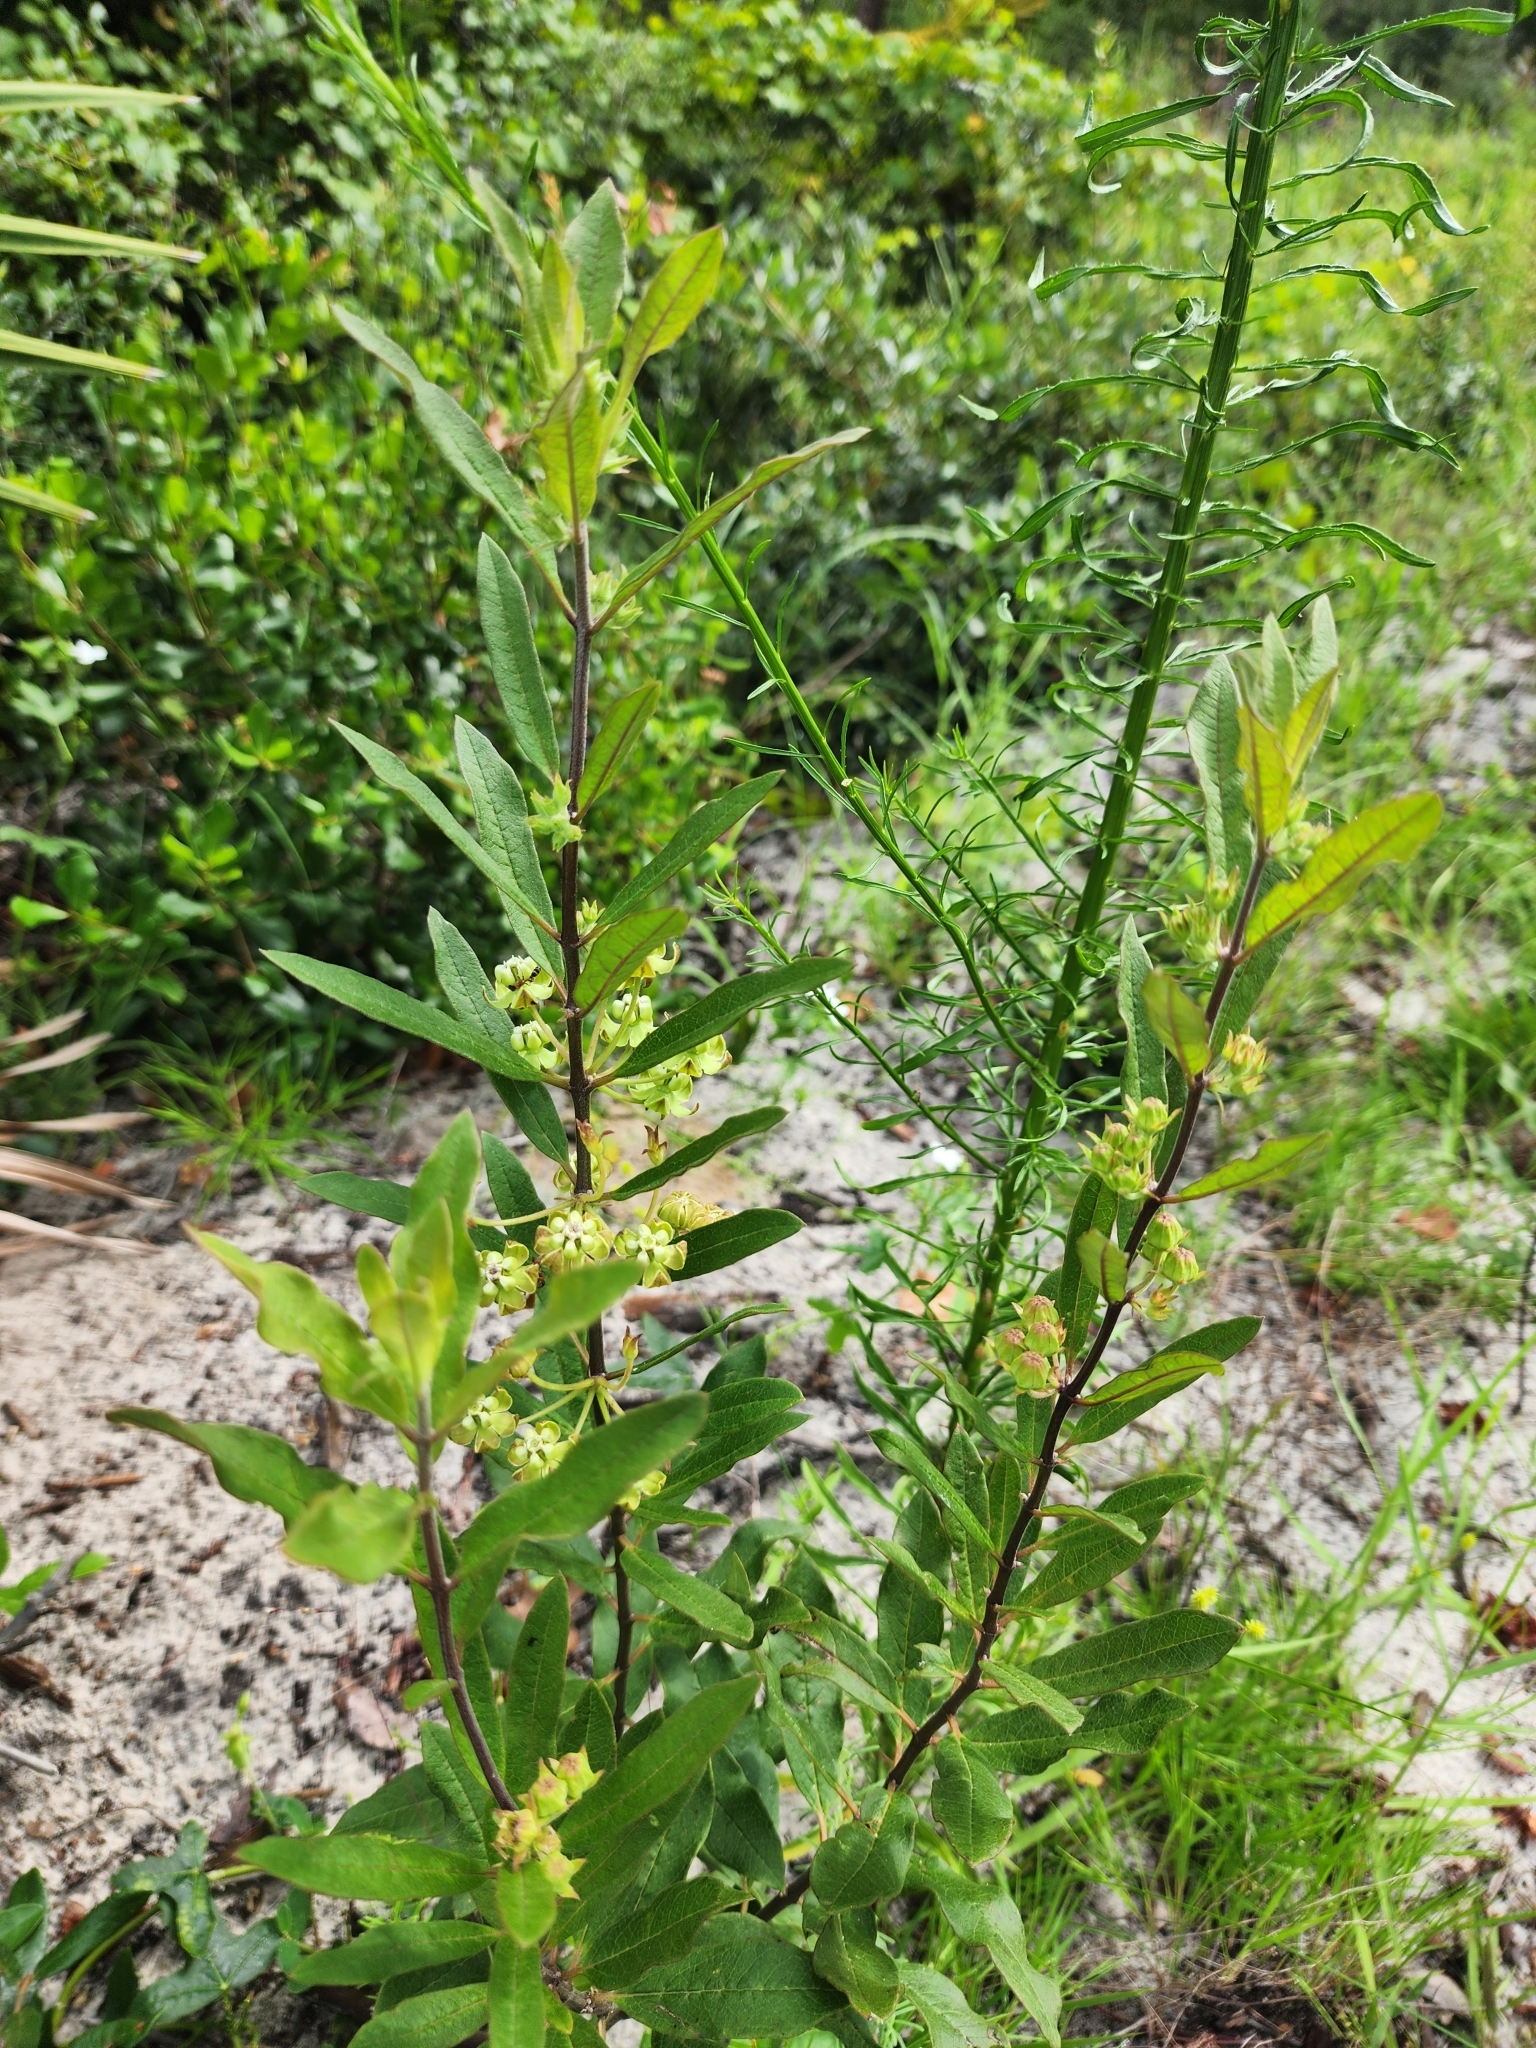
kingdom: Plantae
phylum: Tracheophyta
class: Magnoliopsida
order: Gentianales
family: Apocynaceae
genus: Asclepias
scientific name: Asclepias tomentosa
